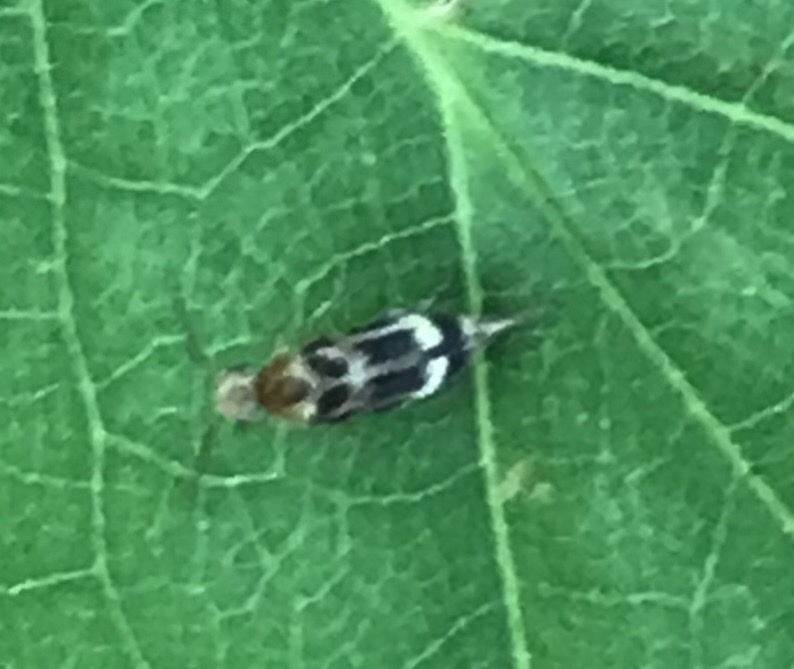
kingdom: Animalia
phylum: Arthropoda
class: Insecta
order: Coleoptera
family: Mordellidae
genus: Falsomordellistena
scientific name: Falsomordellistena hebraica
